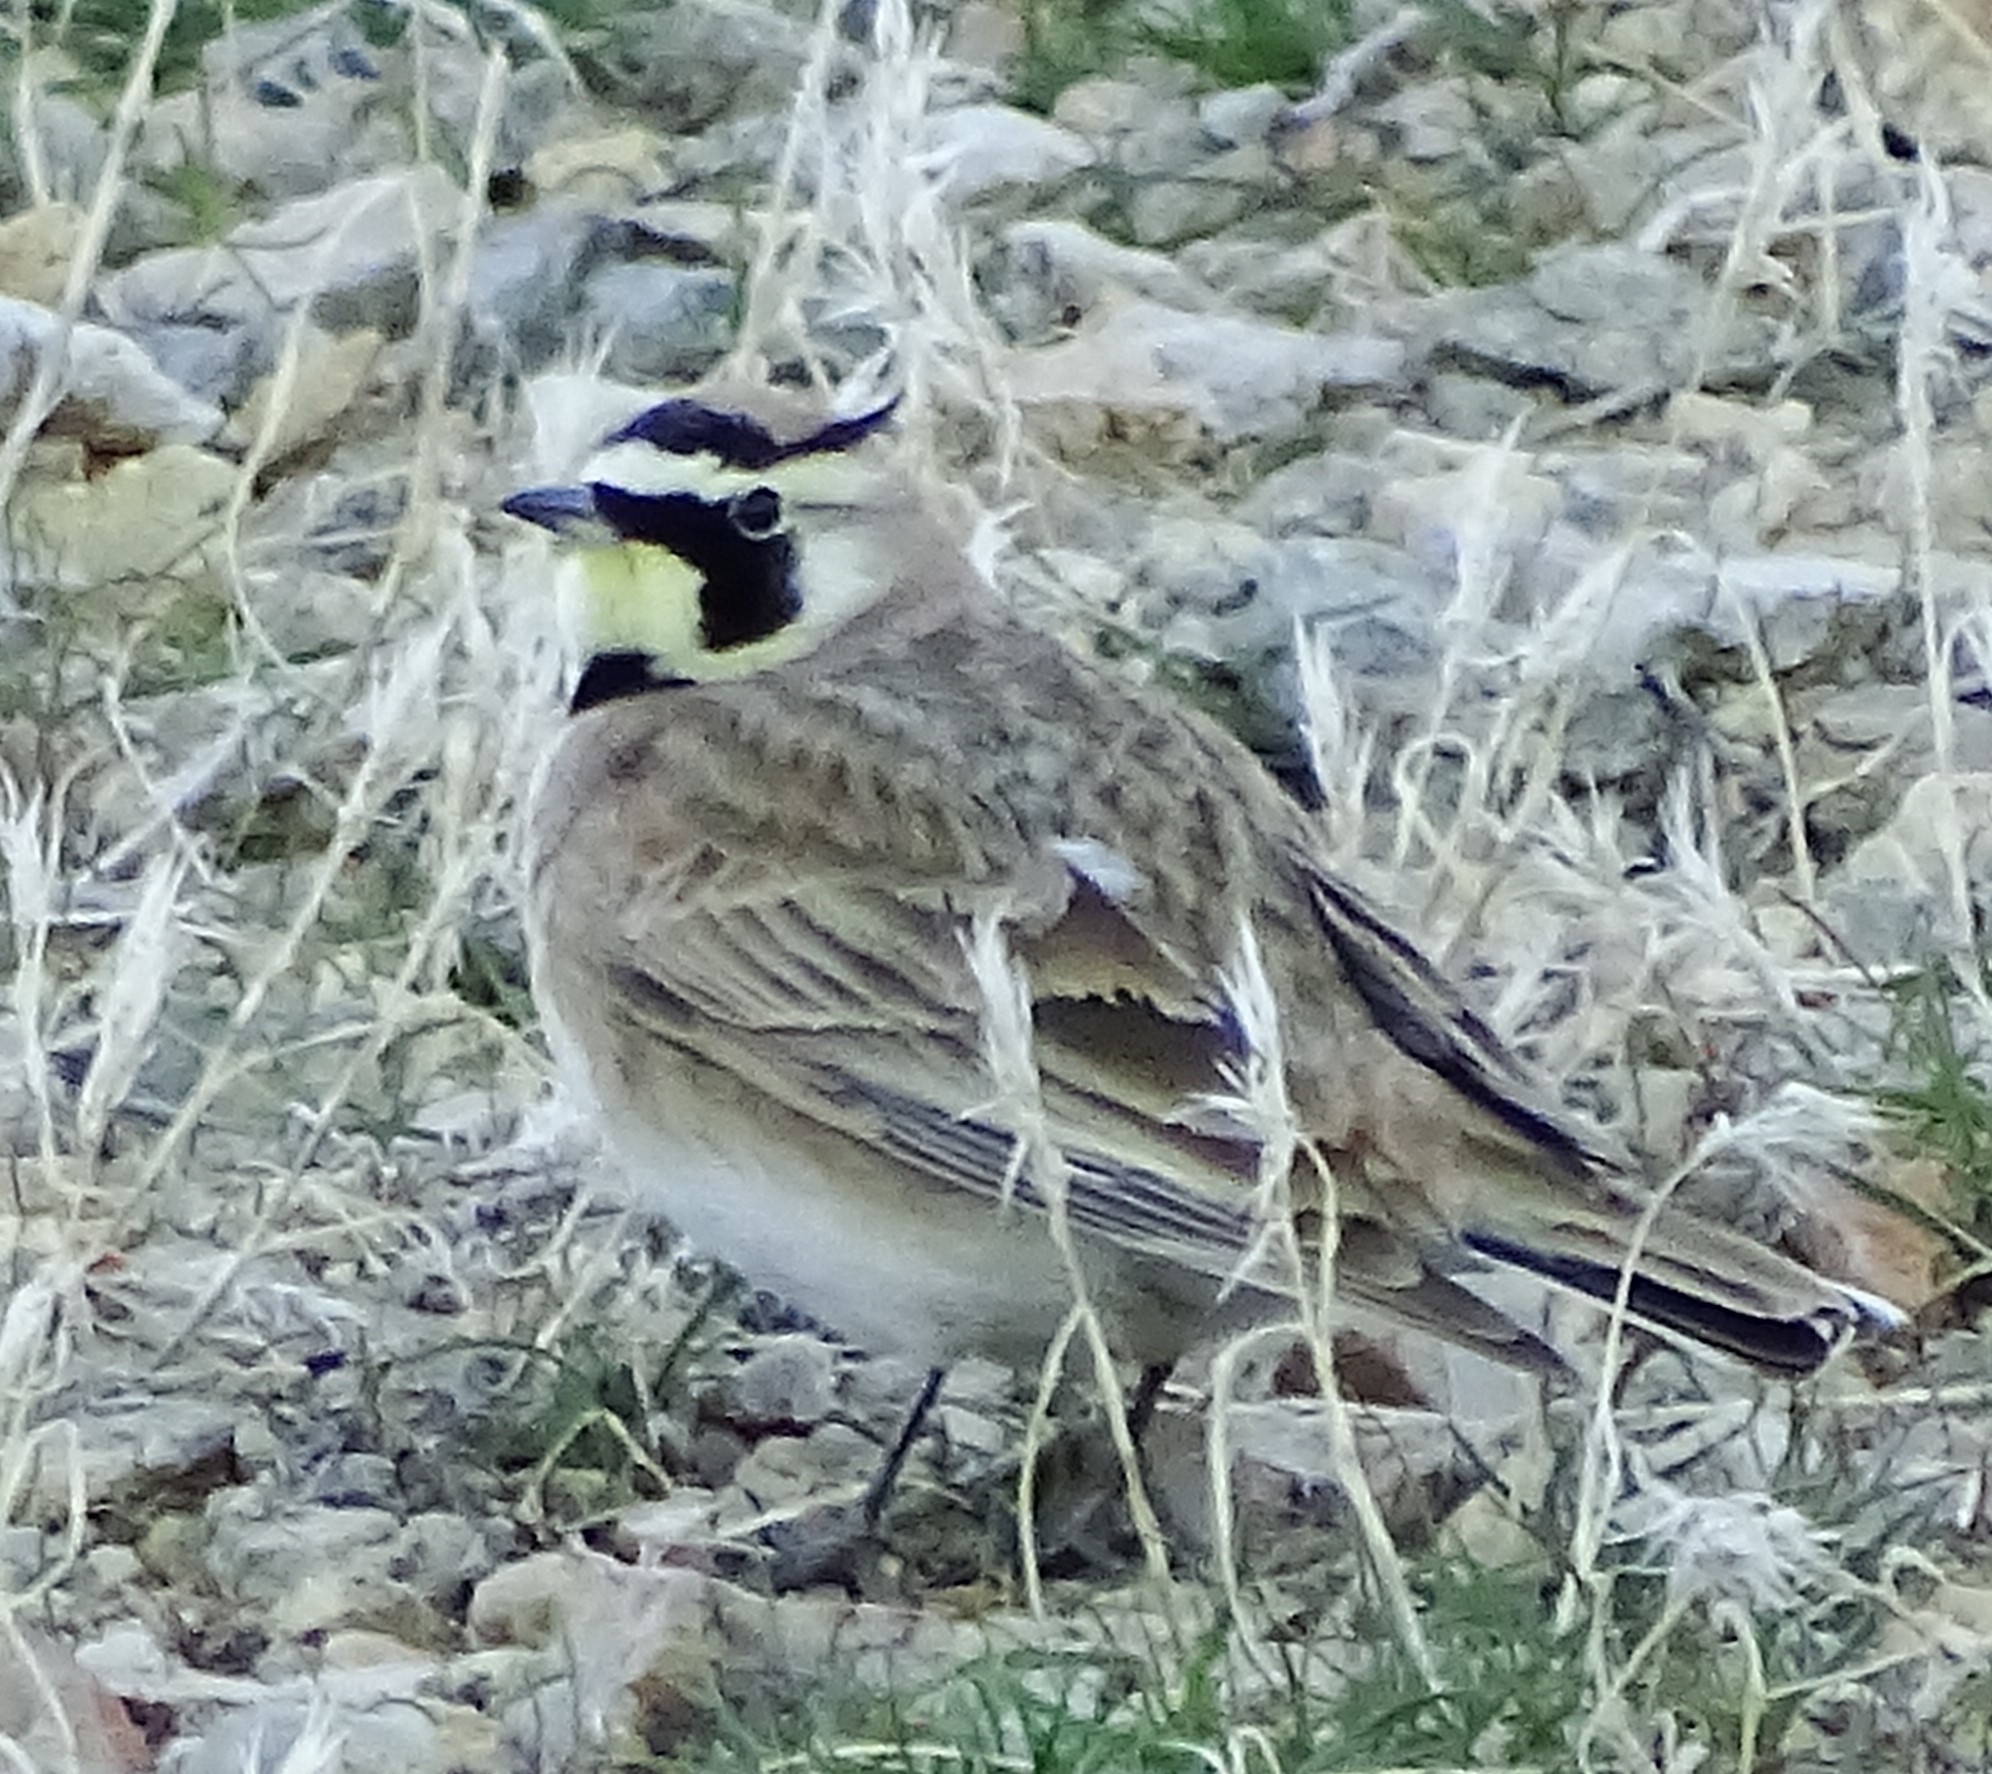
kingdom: Animalia
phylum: Chordata
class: Aves
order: Passeriformes
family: Alaudidae
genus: Eremophila
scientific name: Eremophila alpestris
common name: Horned lark
